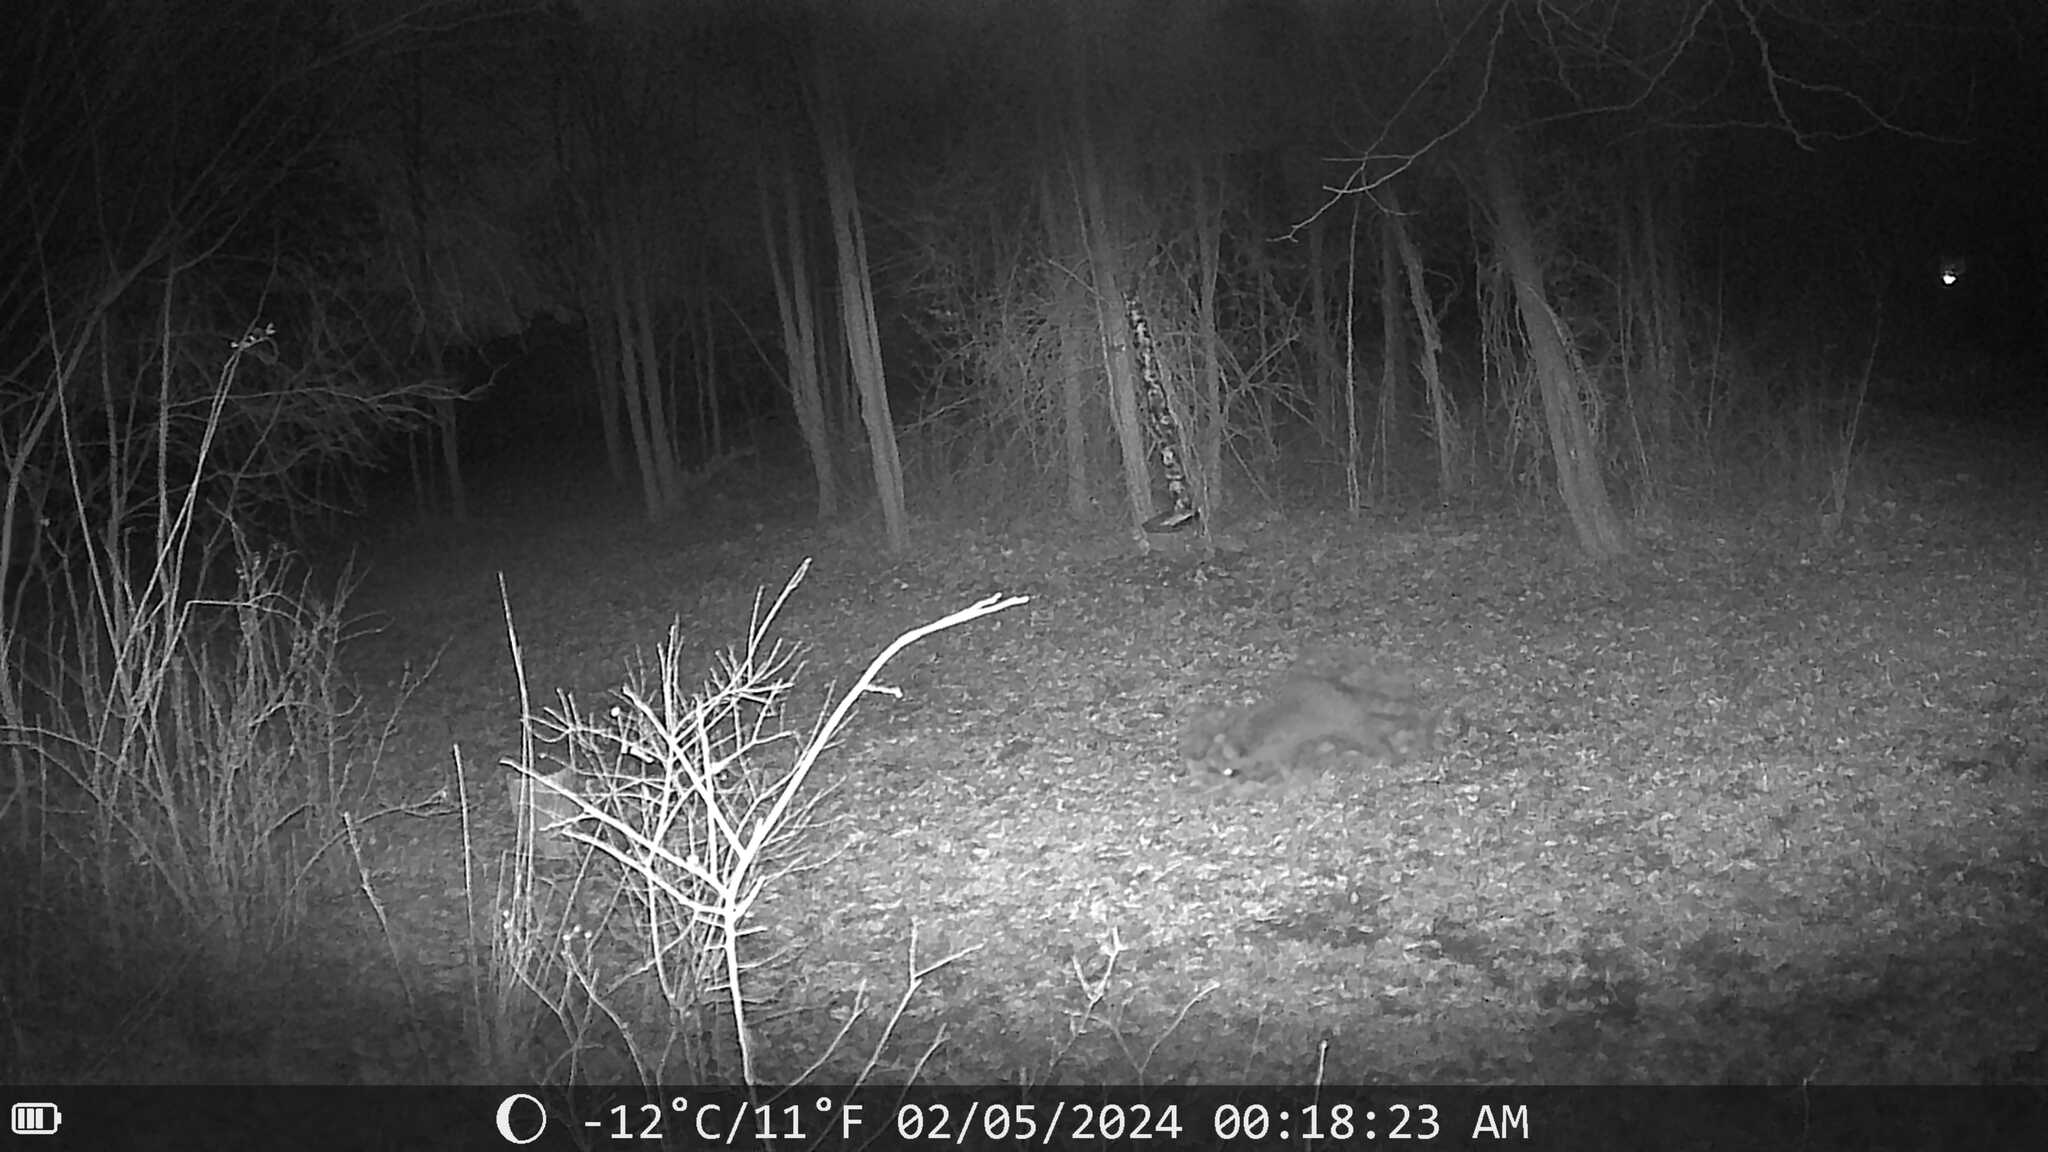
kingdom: Animalia
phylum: Chordata
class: Mammalia
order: Carnivora
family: Procyonidae
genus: Procyon
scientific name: Procyon lotor
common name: Raccoon
